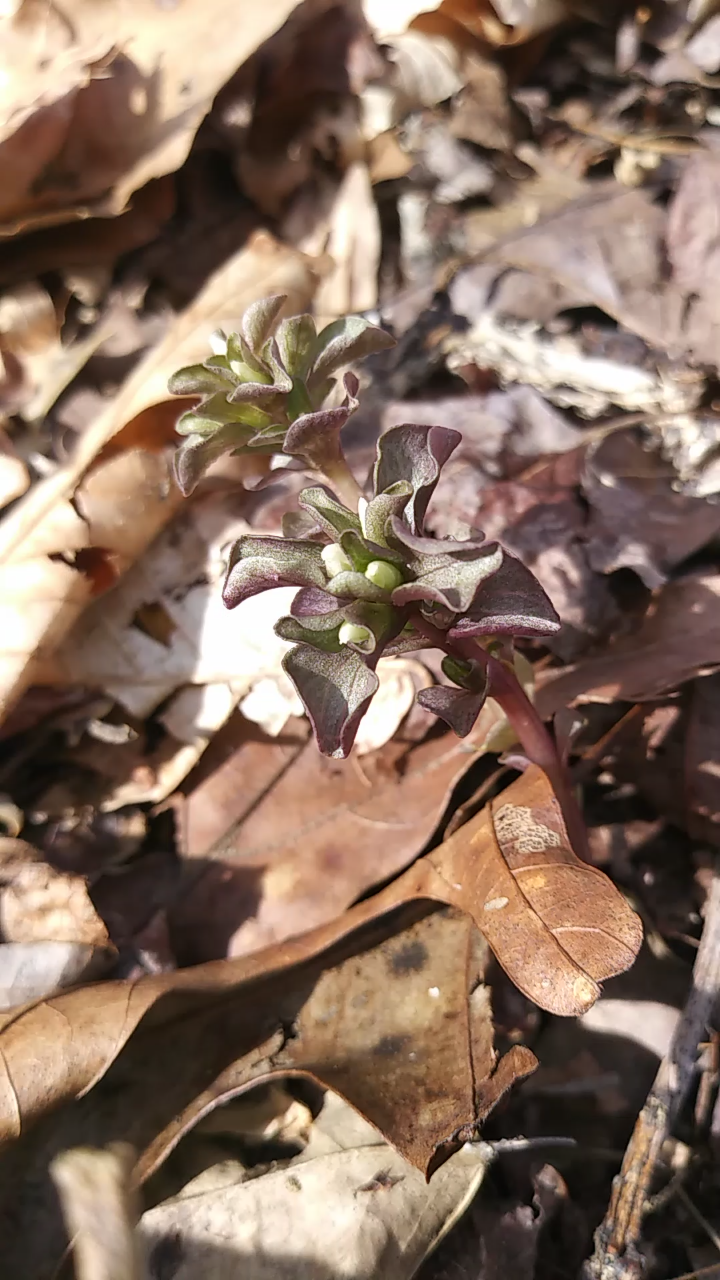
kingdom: Plantae
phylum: Tracheophyta
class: Magnoliopsida
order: Gentianales
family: Gentianaceae
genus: Obolaria
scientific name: Obolaria virginica
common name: Pennywort
